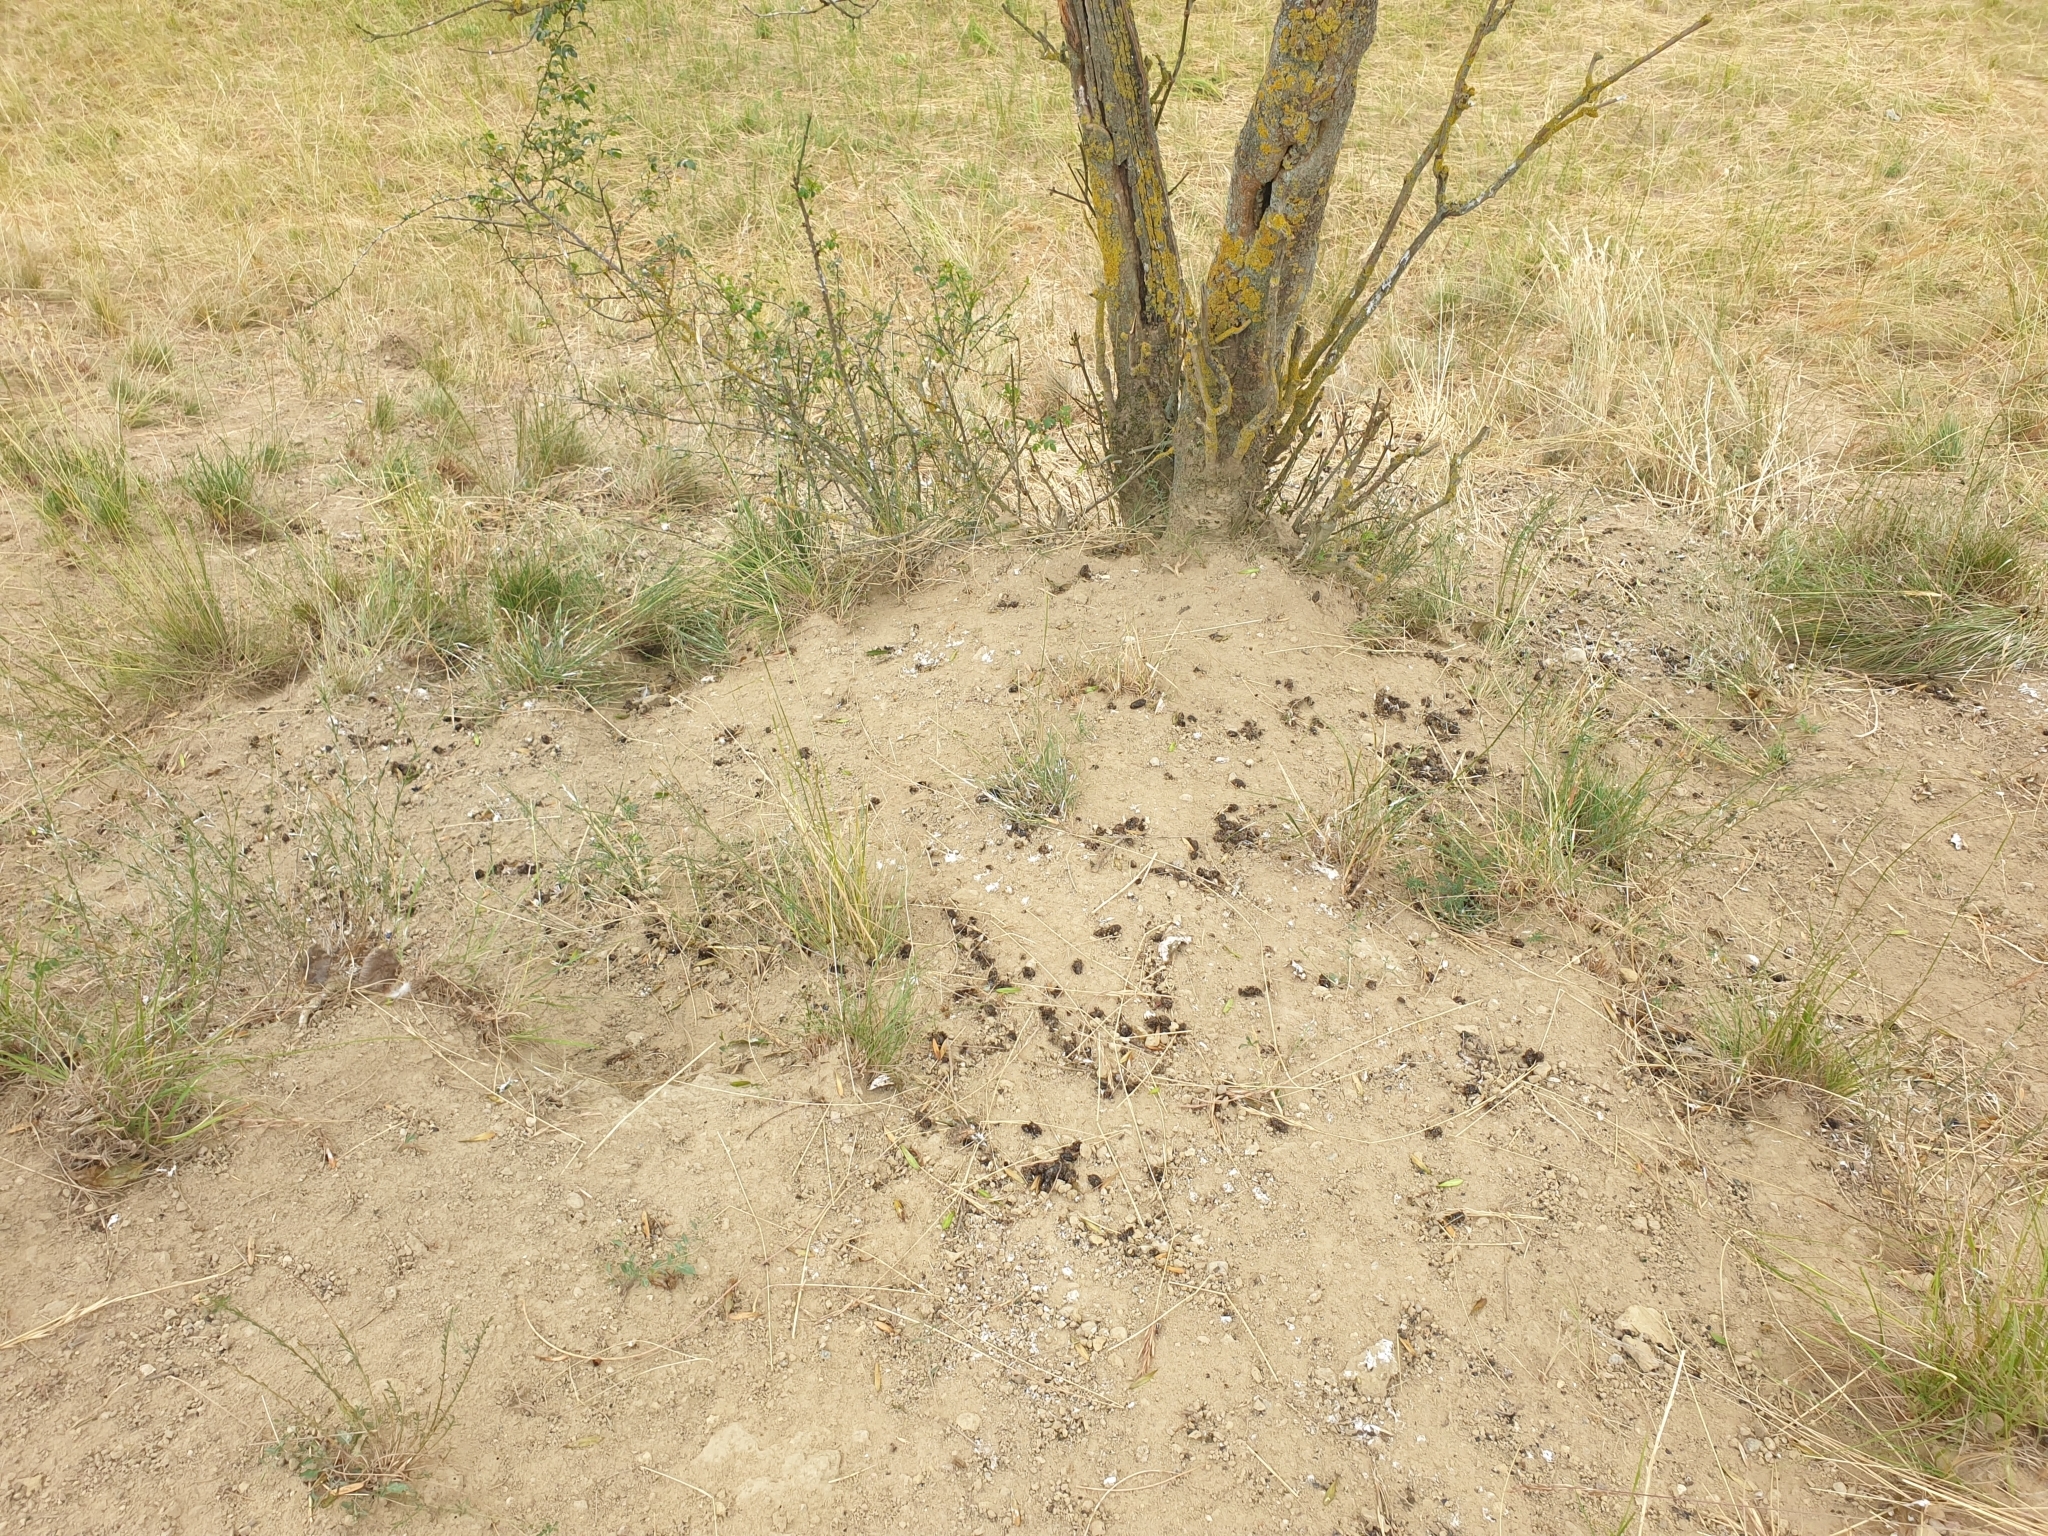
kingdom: Animalia
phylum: Chordata
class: Aves
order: Coraciiformes
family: Meropidae
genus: Merops
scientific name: Merops apiaster
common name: European bee-eater
